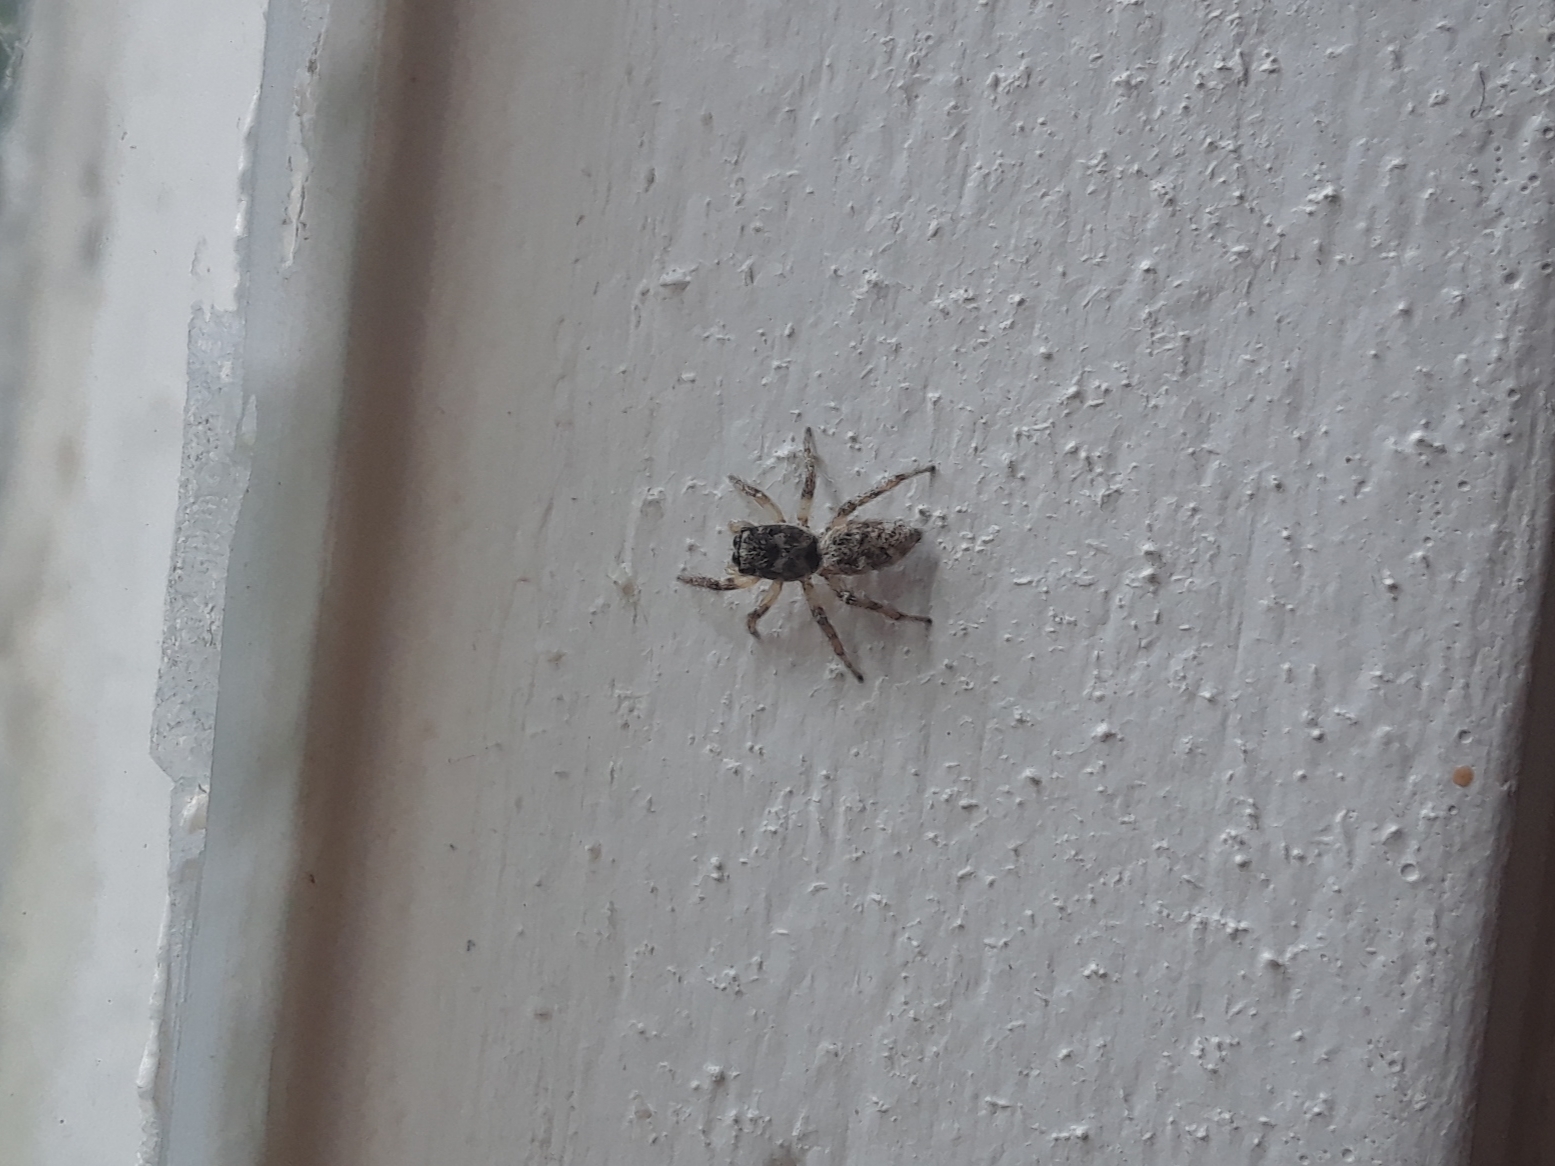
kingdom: Animalia
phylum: Arthropoda
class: Arachnida
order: Araneae
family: Salticidae
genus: Salticus
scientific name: Salticus scenicus
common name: Zebra jumper
